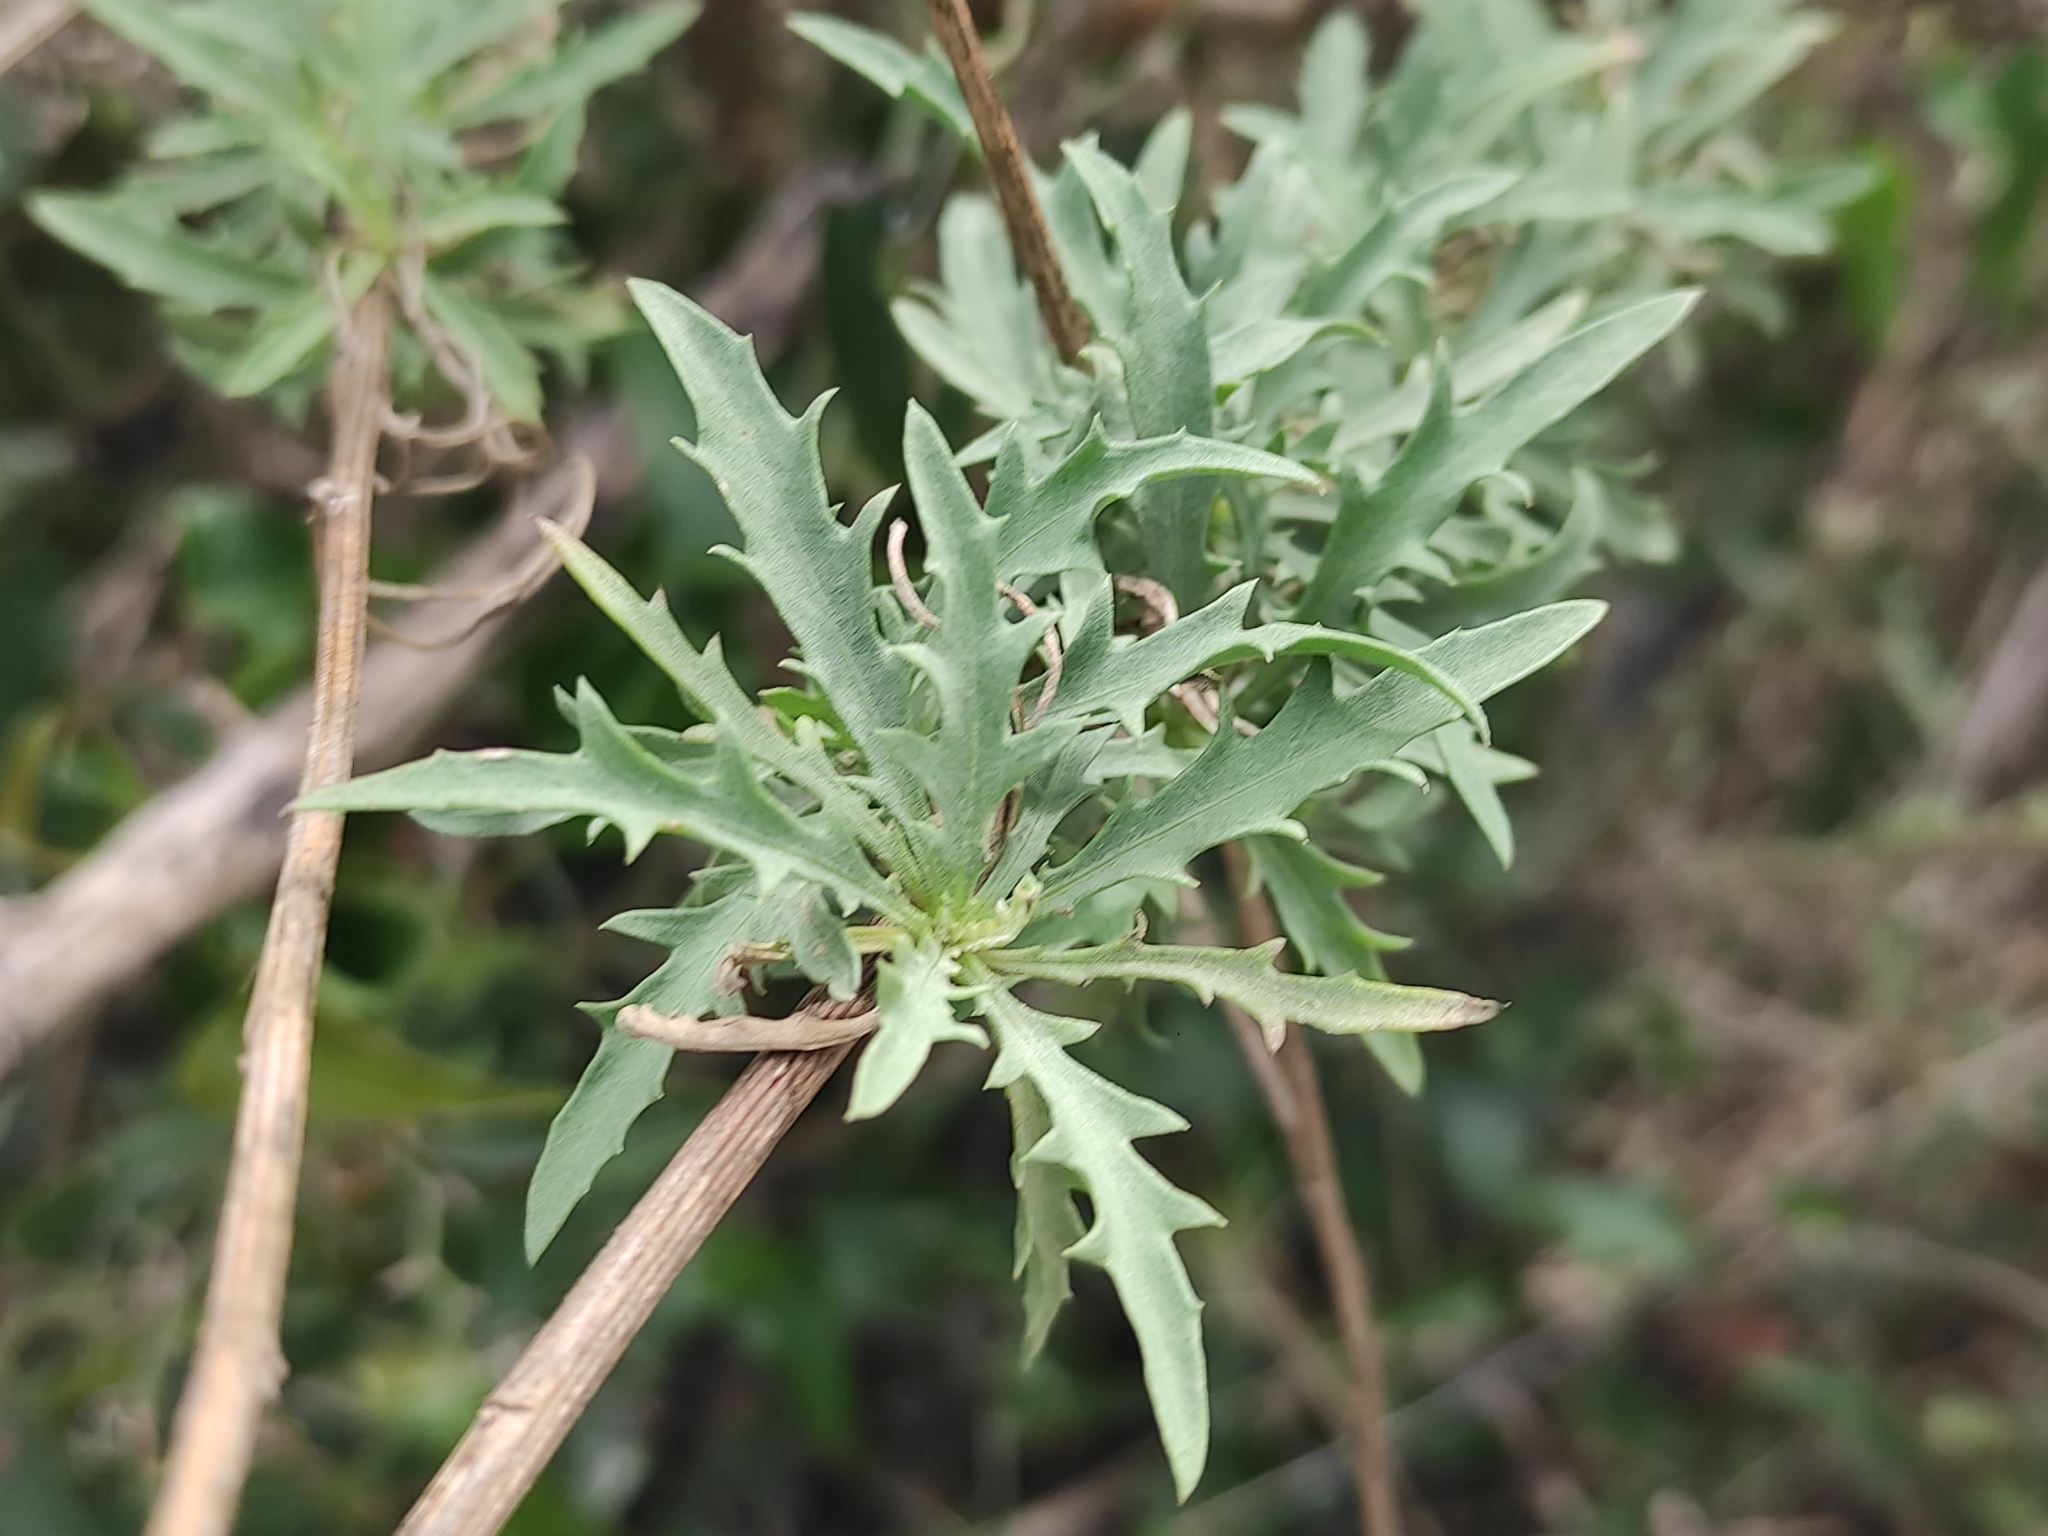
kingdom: Plantae
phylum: Tracheophyta
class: Magnoliopsida
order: Asterales
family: Asteraceae
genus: Cheirolophus
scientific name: Cheirolophus intybaceus
